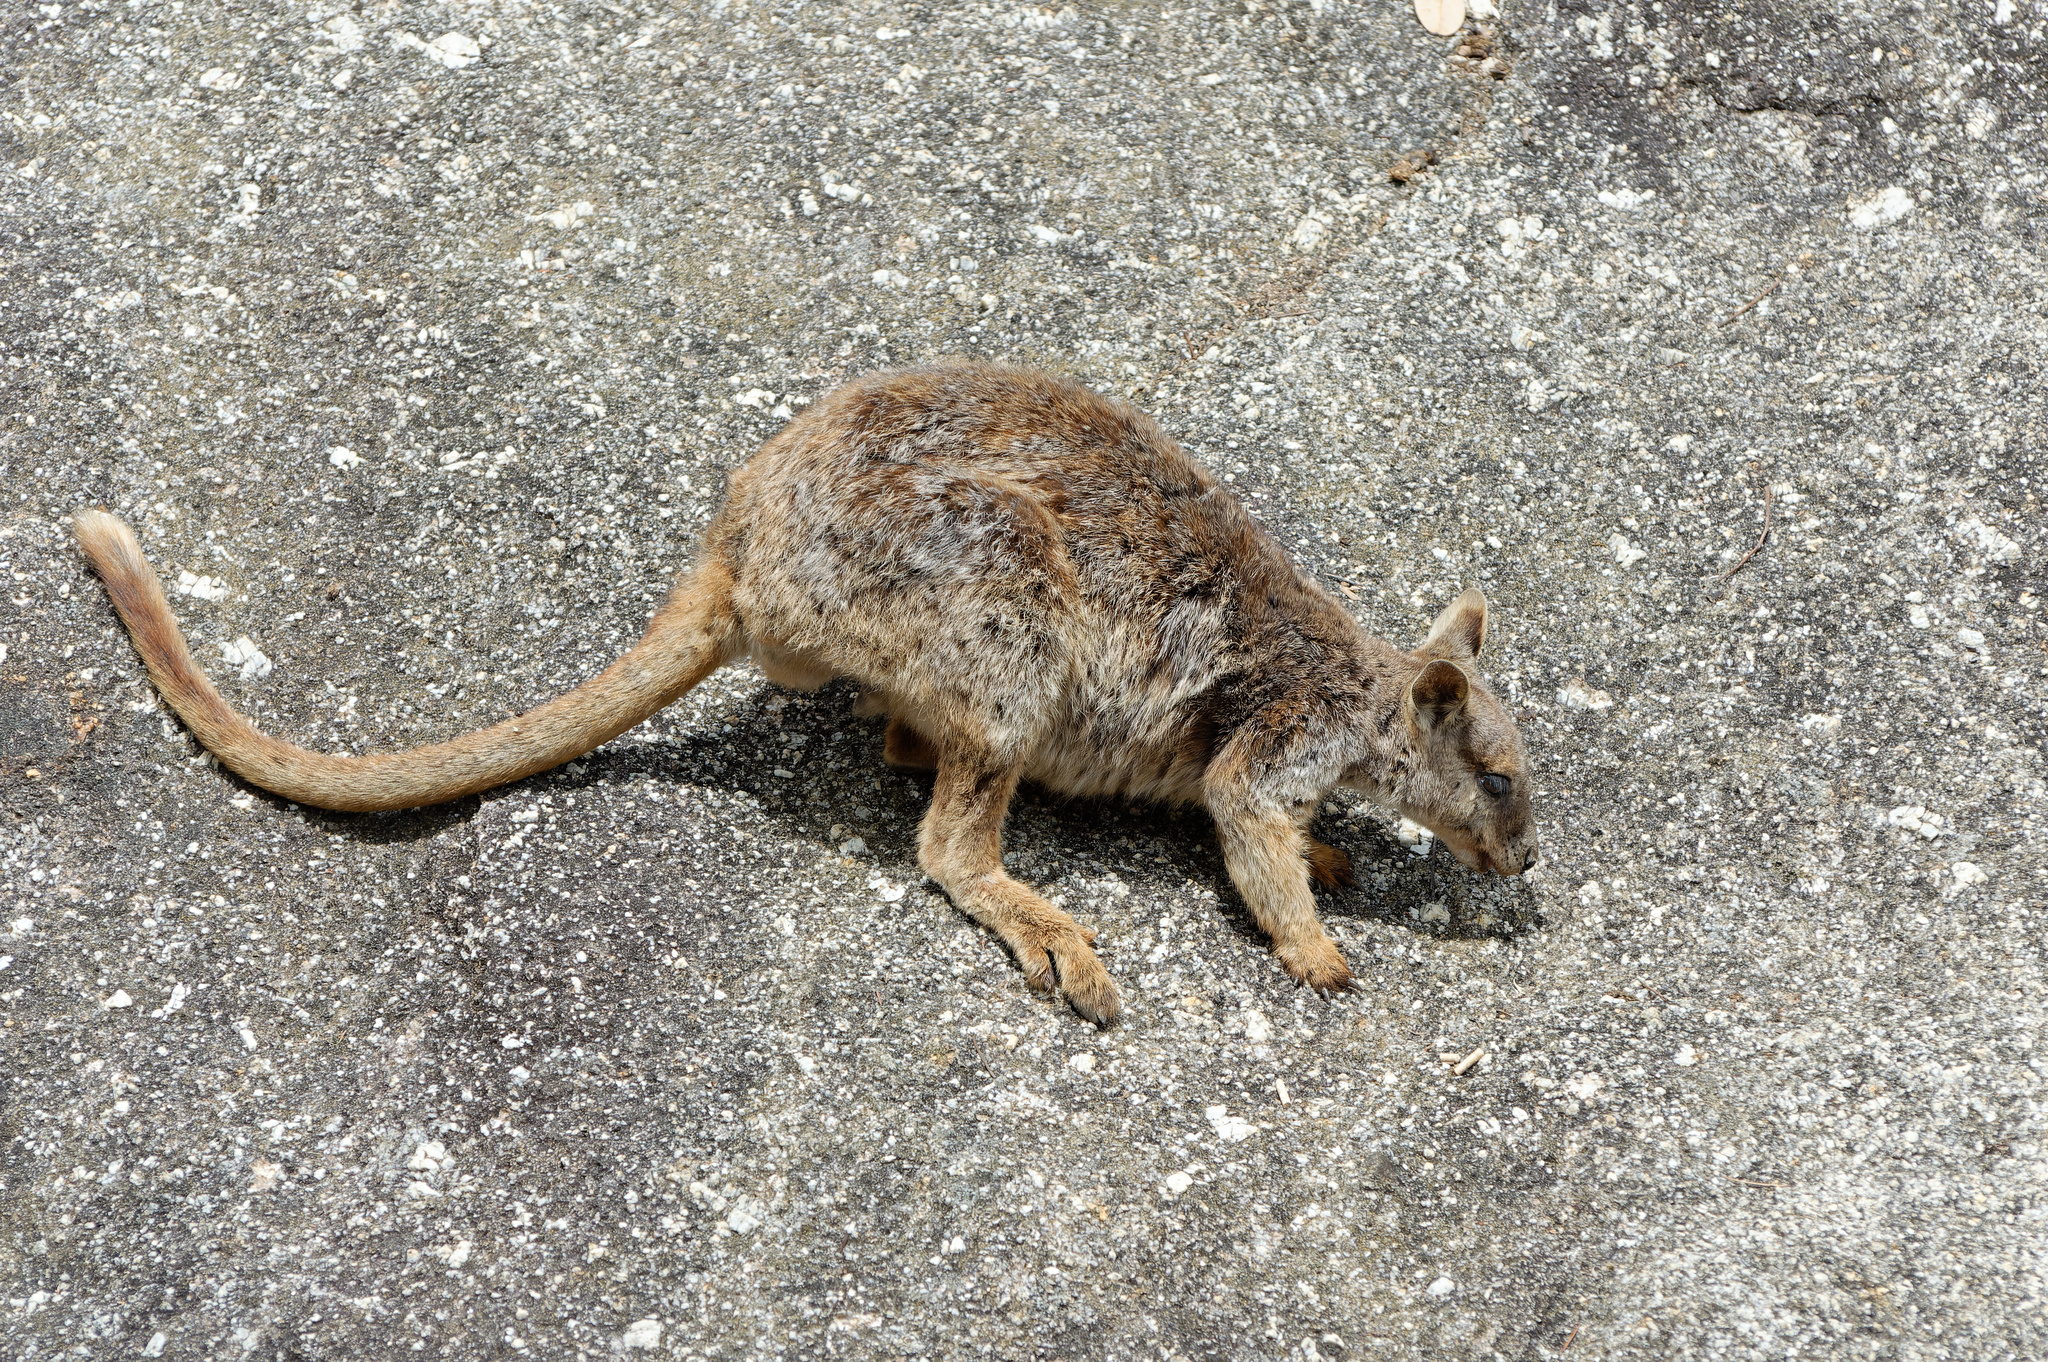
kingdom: Animalia
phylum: Chordata
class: Mammalia
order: Diprotodontia
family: Macropodidae
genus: Petrogale
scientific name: Petrogale mareeba
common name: Mareeba rock-wallaby
